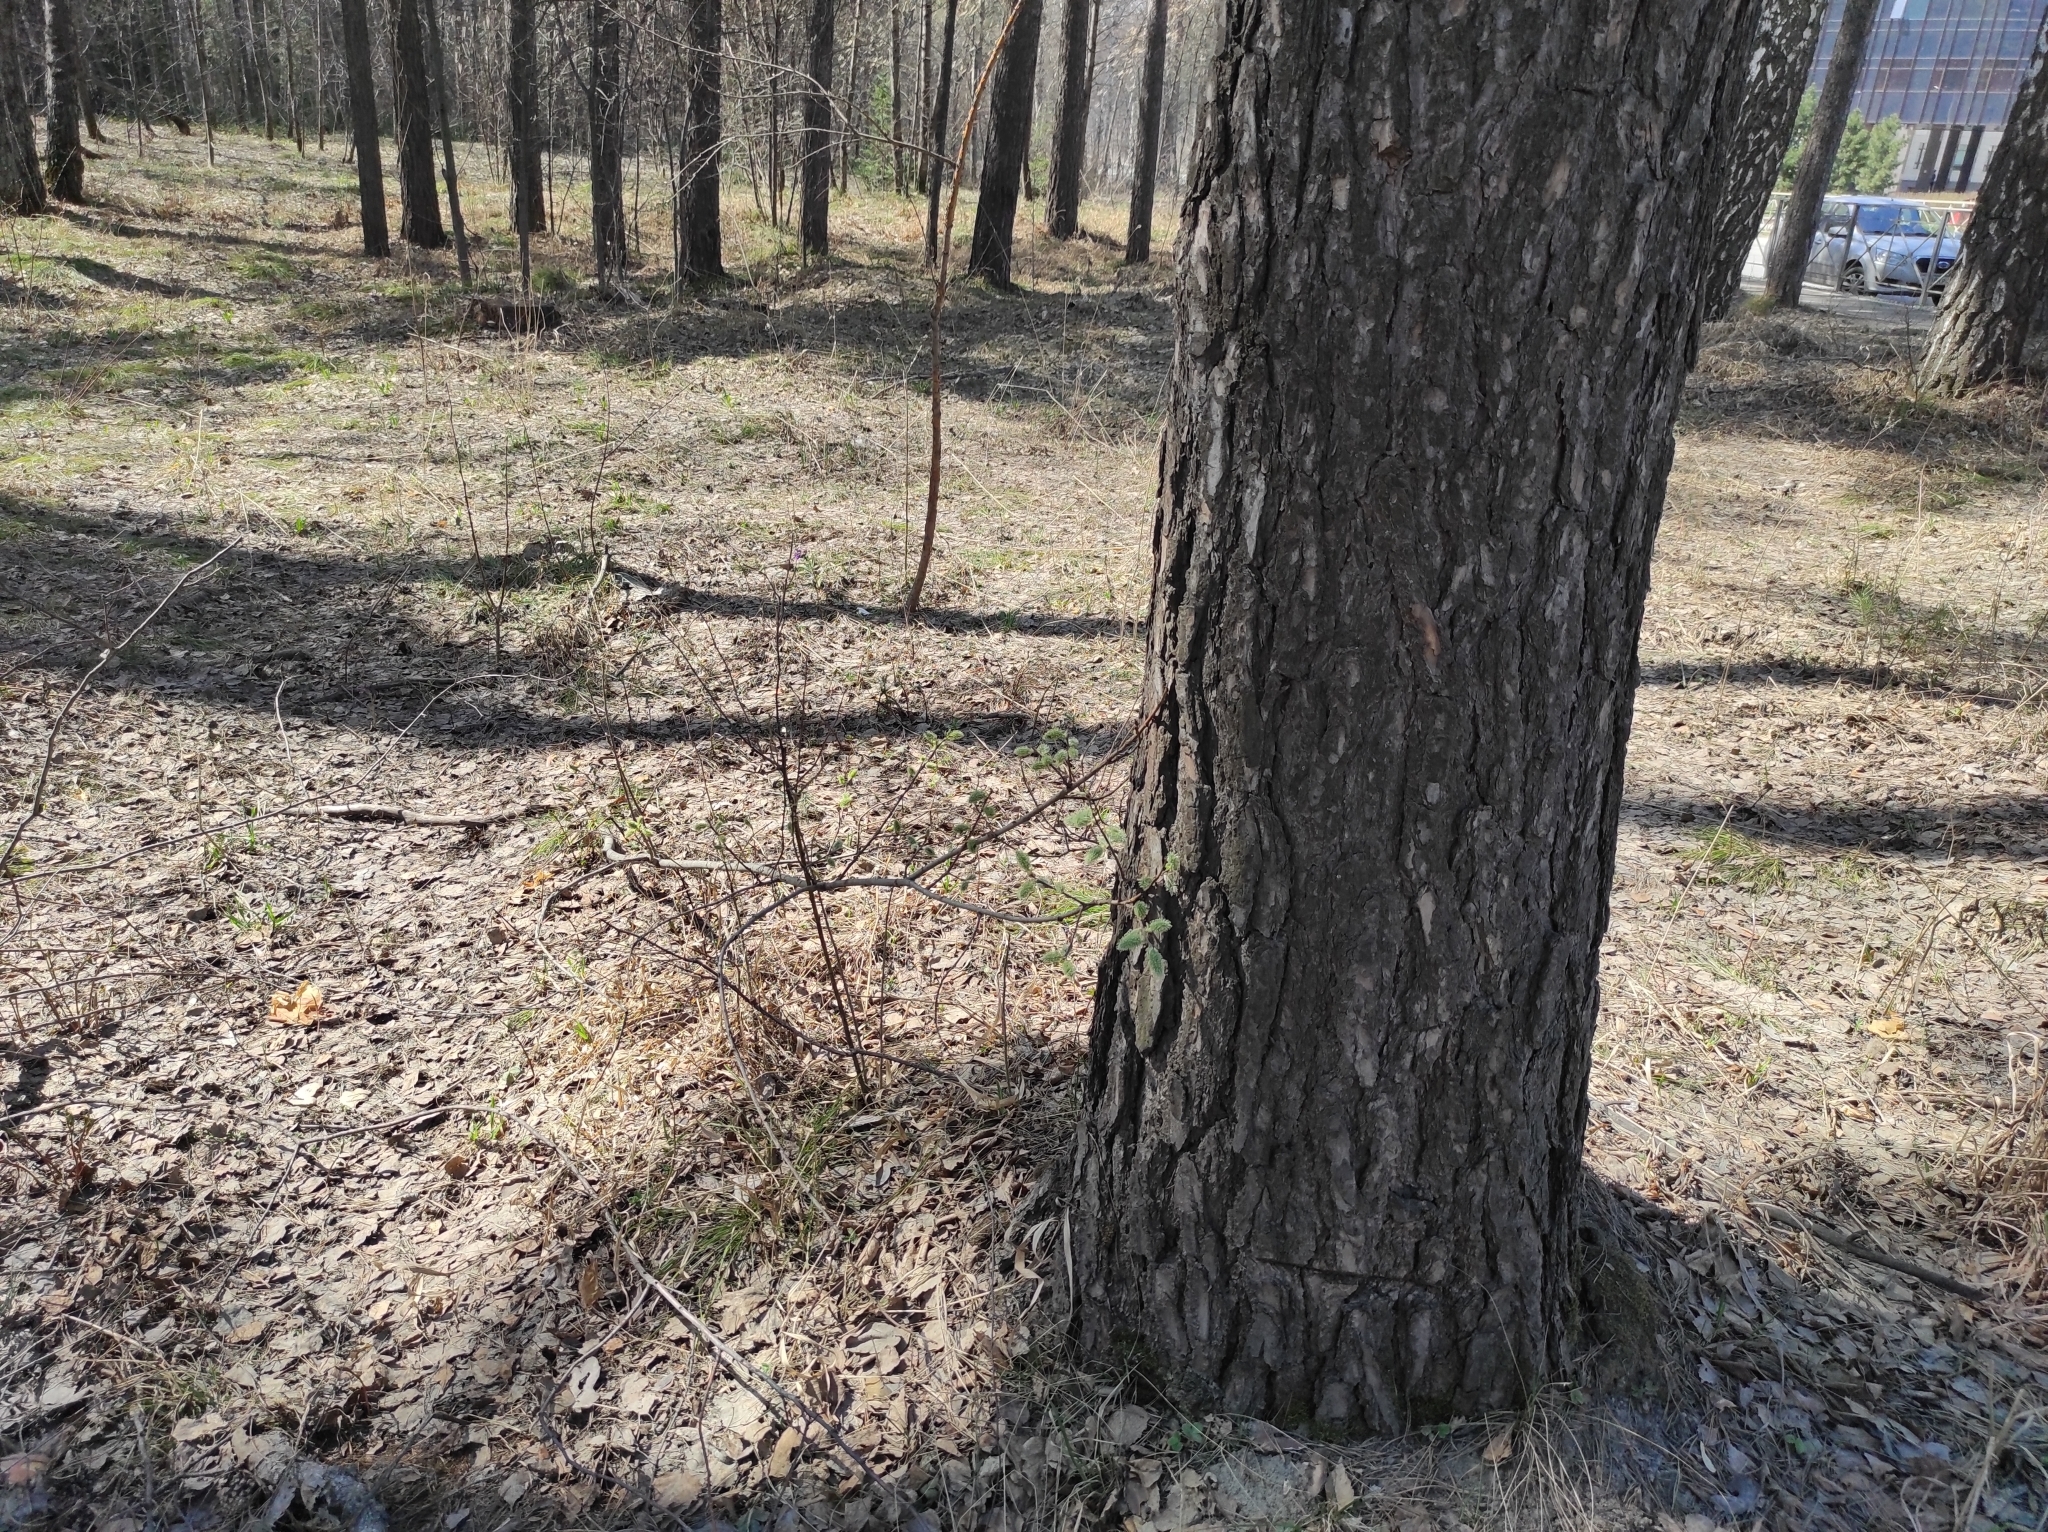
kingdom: Plantae
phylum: Tracheophyta
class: Pinopsida
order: Pinales
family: Pinaceae
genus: Pinus
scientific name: Pinus sylvestris
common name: Scots pine
